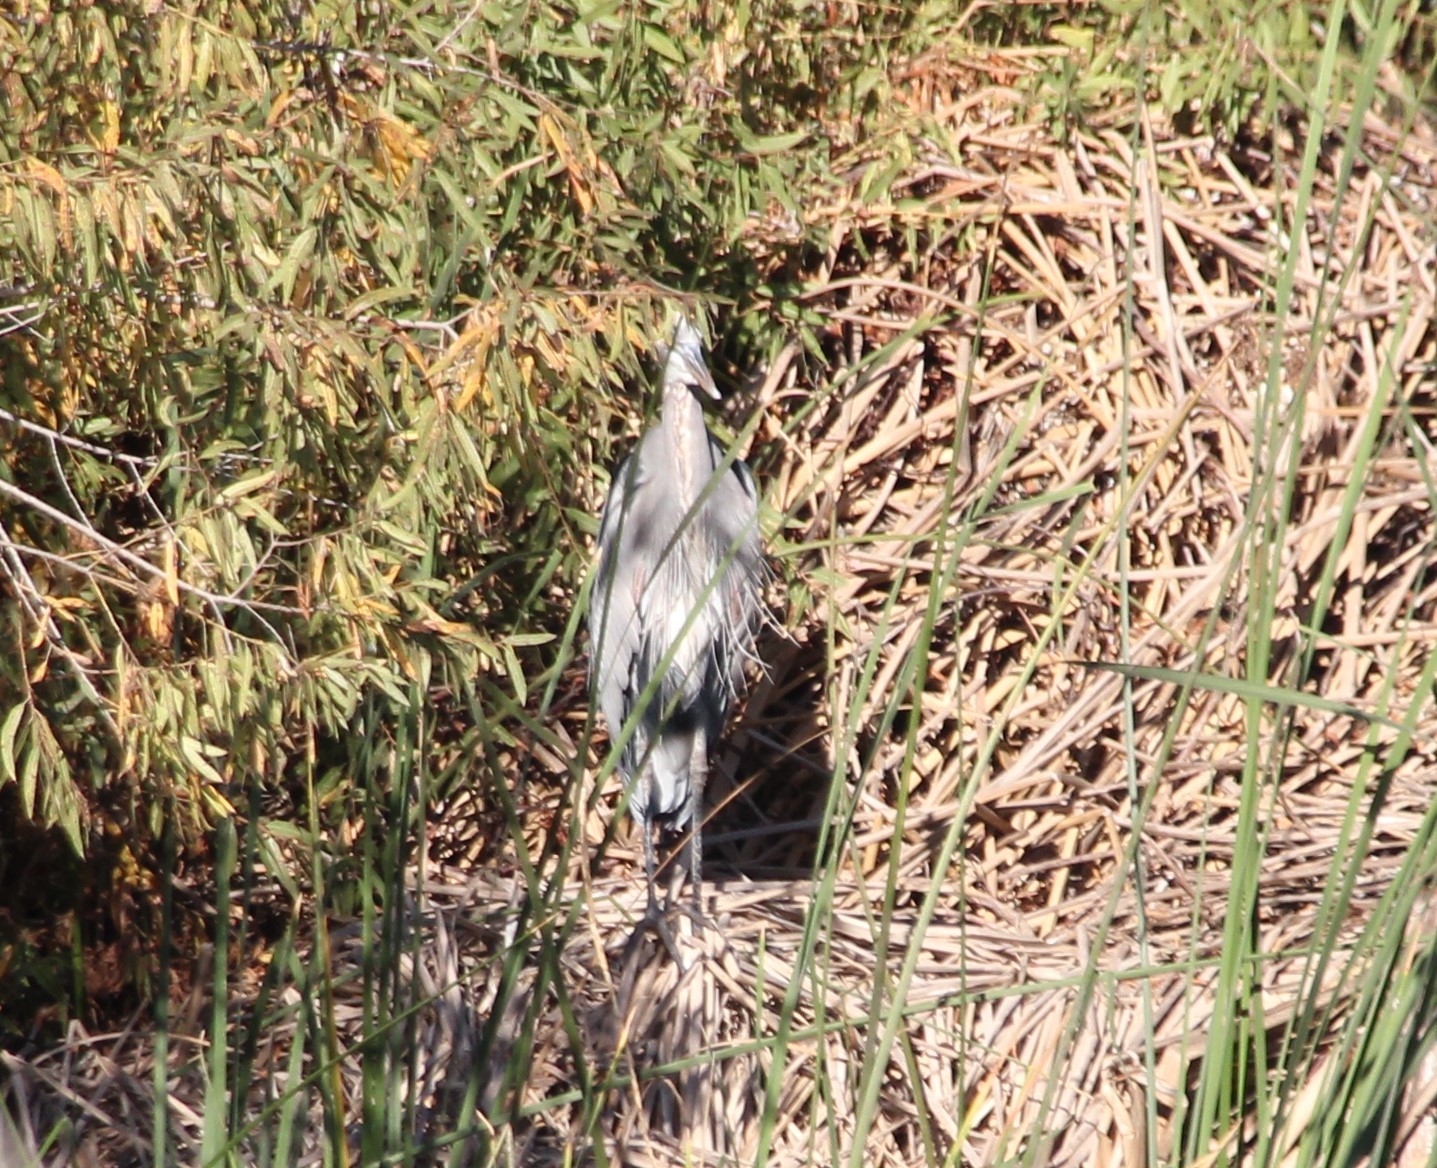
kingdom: Animalia
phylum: Chordata
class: Aves
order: Pelecaniformes
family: Ardeidae
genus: Ardea
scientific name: Ardea herodias
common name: Great blue heron
